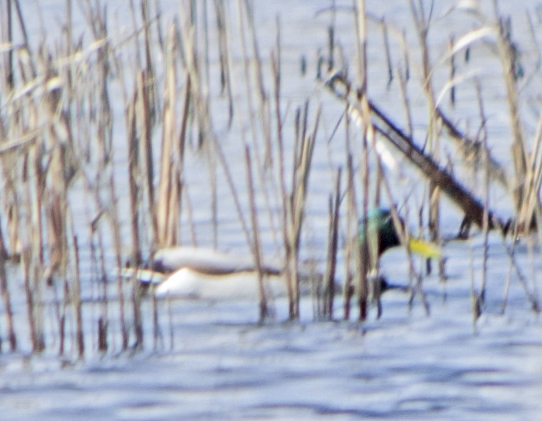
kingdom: Animalia
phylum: Chordata
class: Aves
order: Anseriformes
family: Anatidae
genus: Anas
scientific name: Anas platyrhynchos
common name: Mallard
